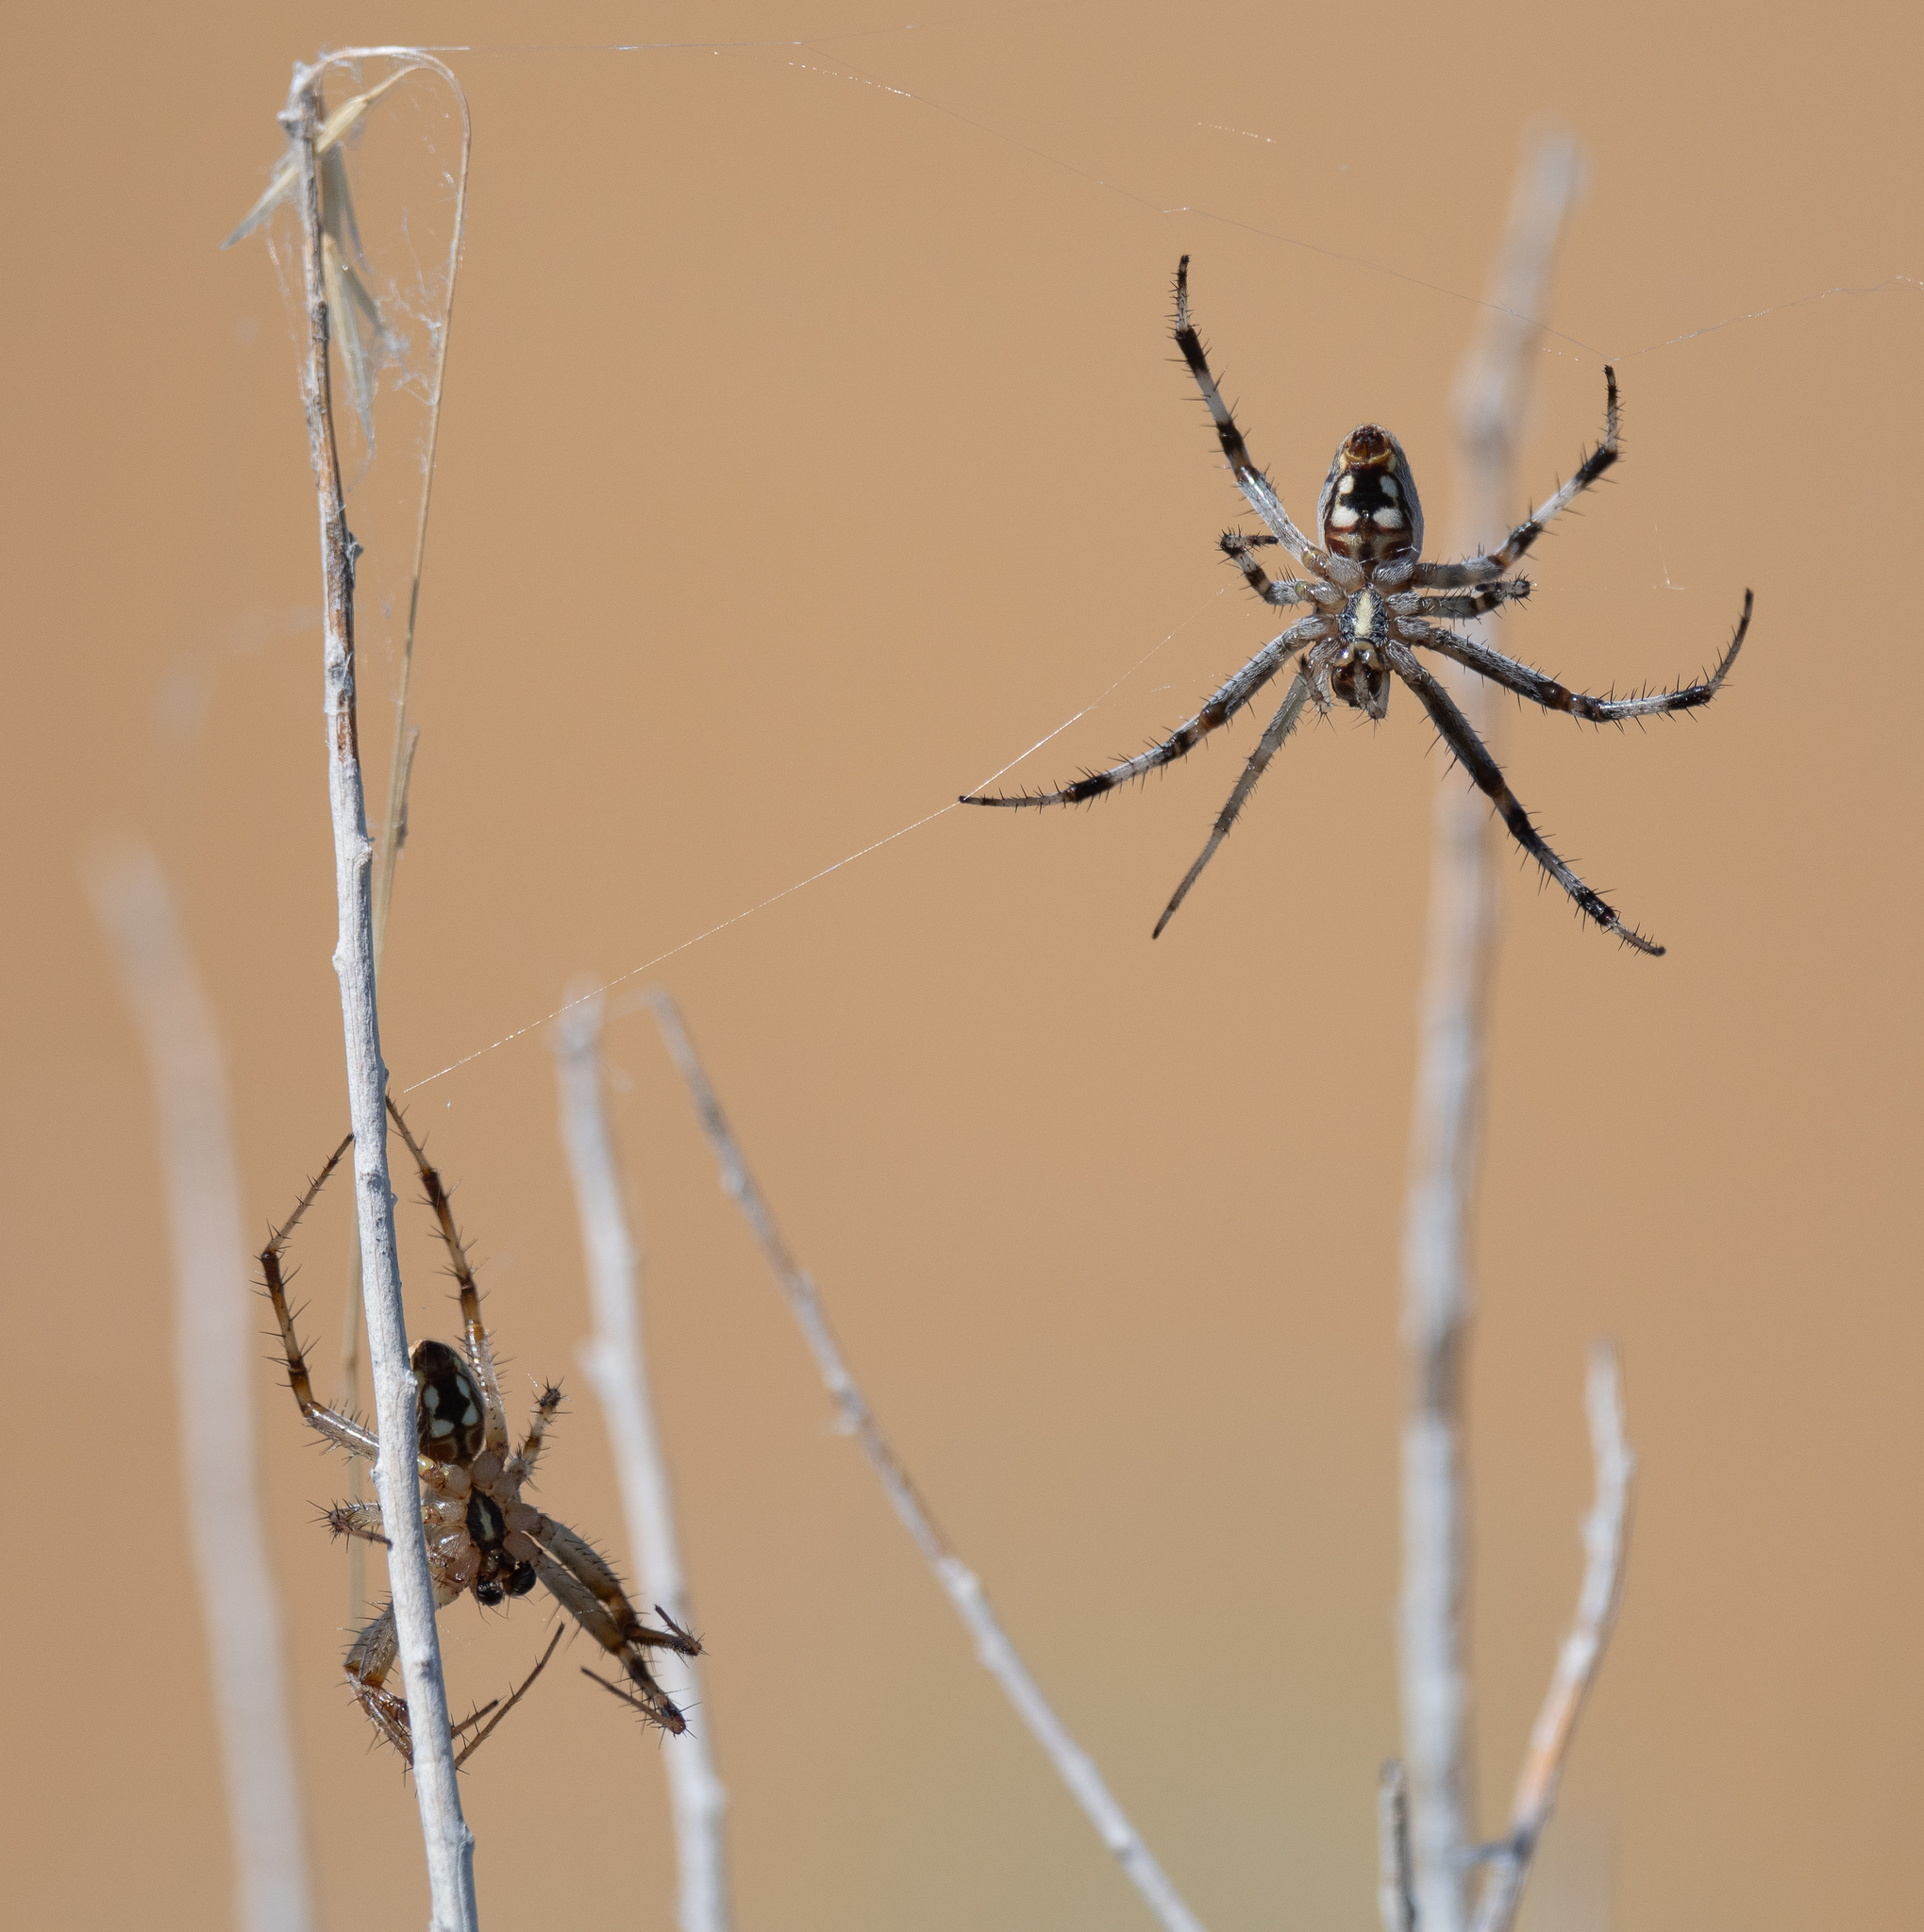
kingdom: Animalia
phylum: Arthropoda
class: Arachnida
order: Araneae
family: Araneidae
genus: Neoscona
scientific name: Neoscona oaxacensis
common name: Orb weavers
